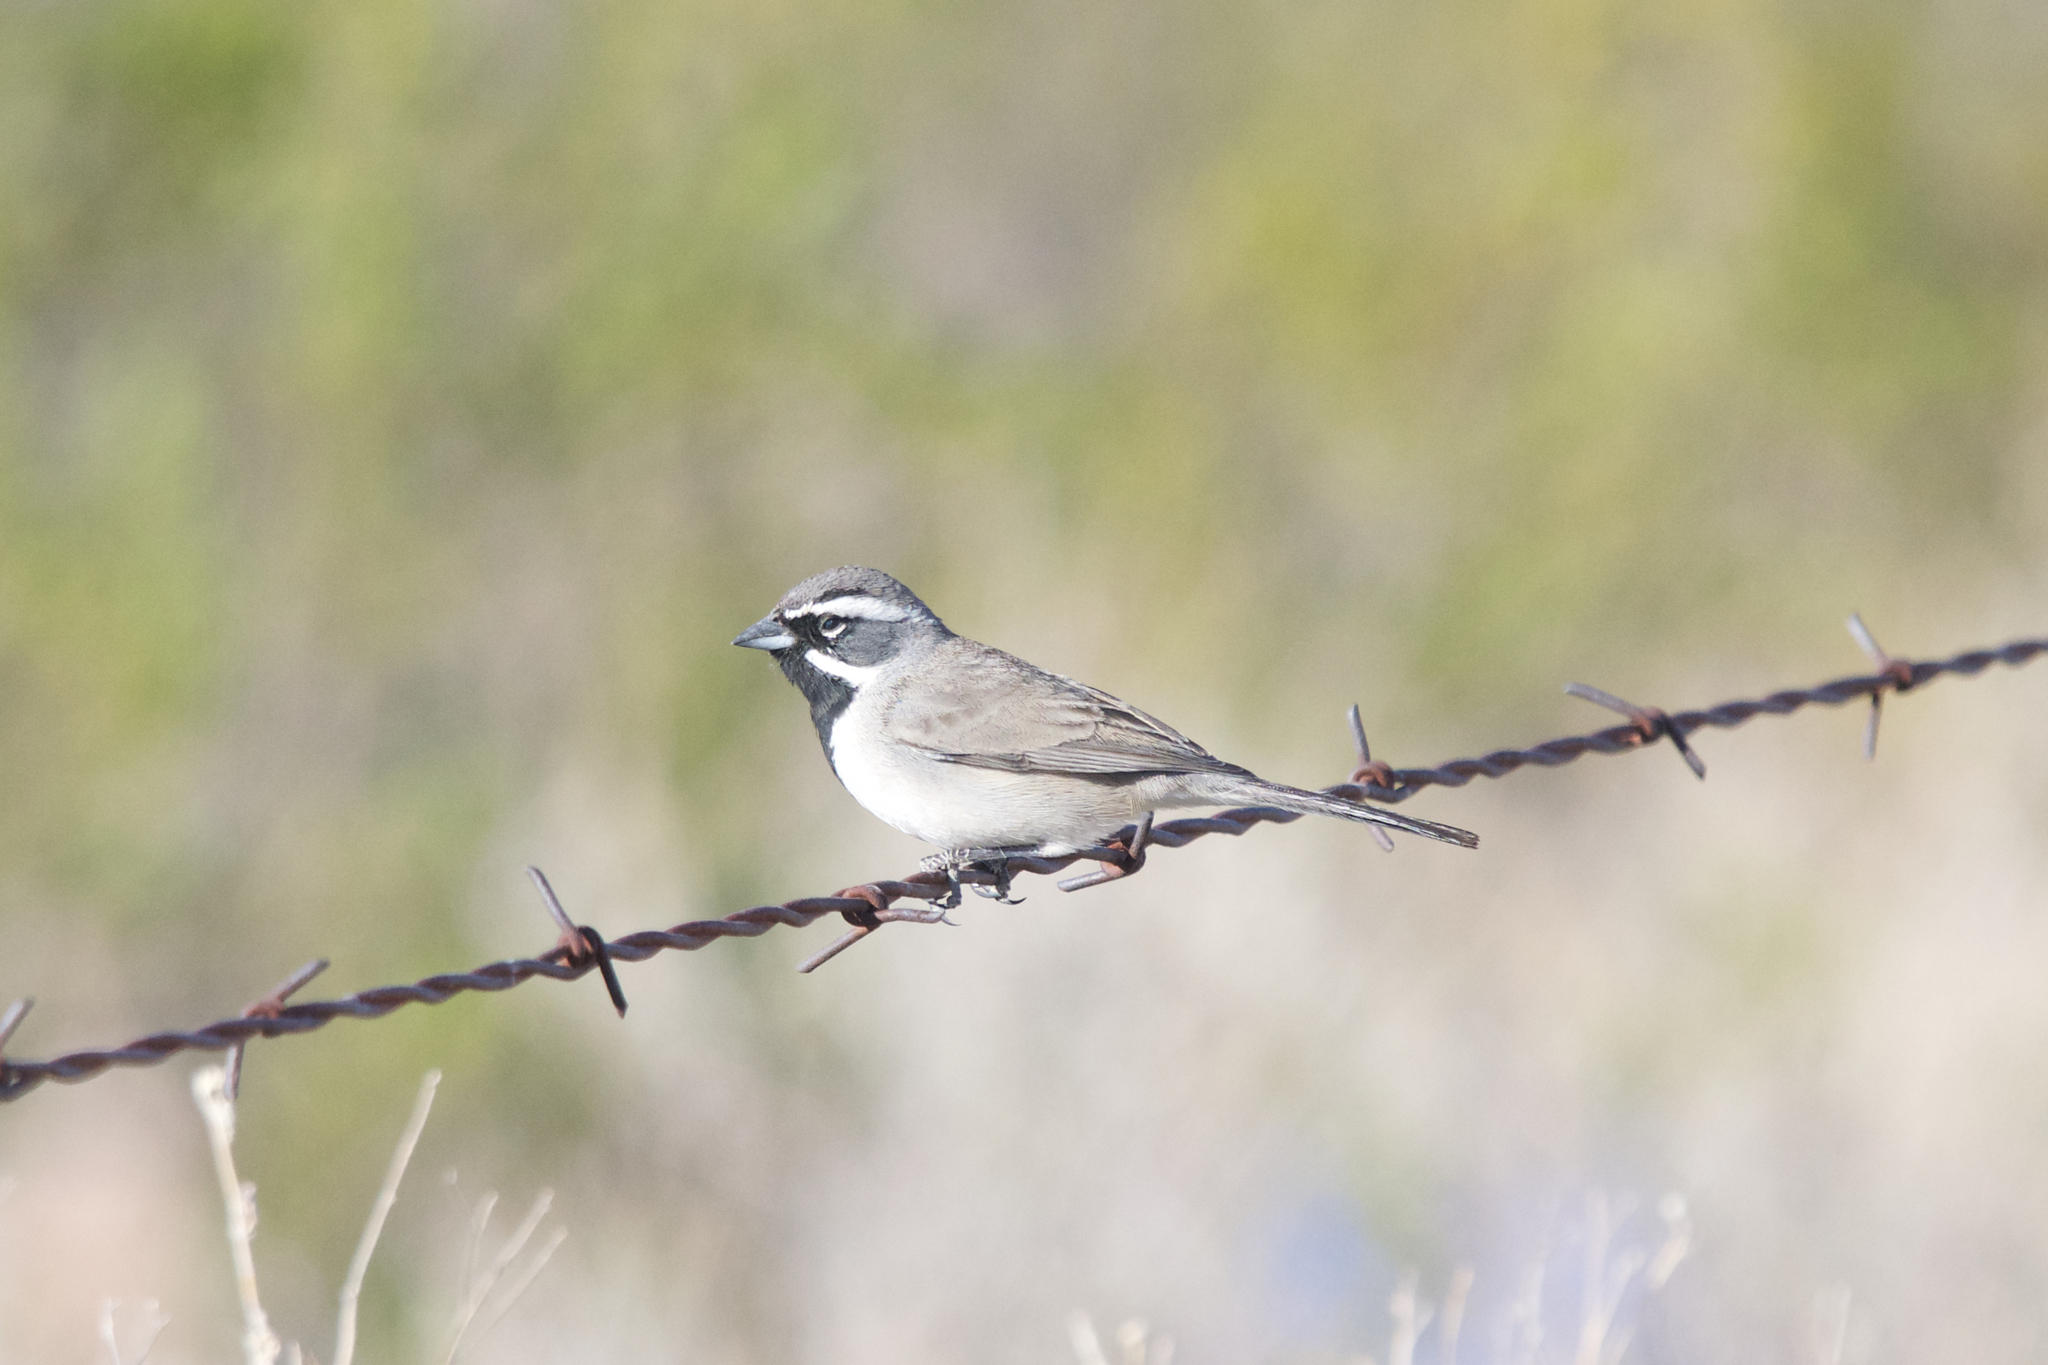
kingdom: Animalia
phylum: Chordata
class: Aves
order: Passeriformes
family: Passerellidae
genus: Amphispiza
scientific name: Amphispiza bilineata
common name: Black-throated sparrow
